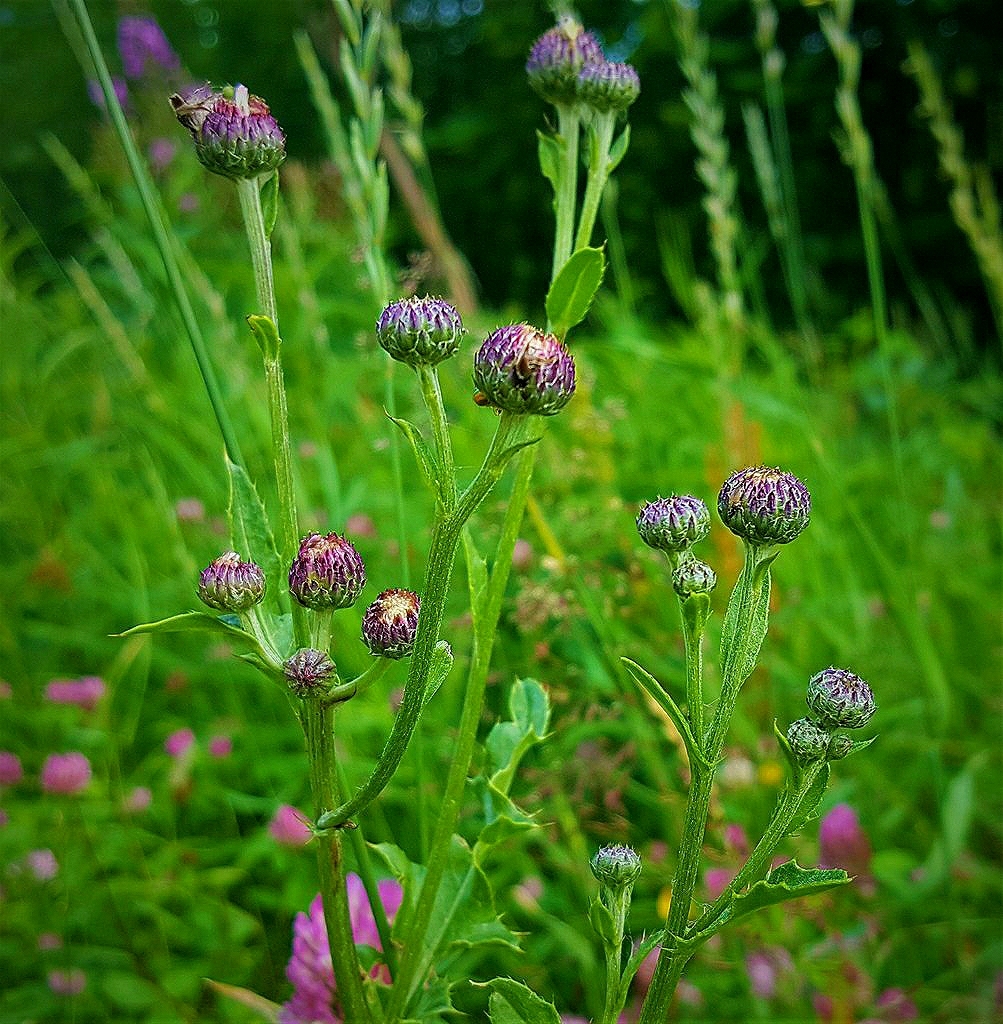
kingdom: Plantae
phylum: Tracheophyta
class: Magnoliopsida
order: Asterales
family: Asteraceae
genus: Cirsium
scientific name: Cirsium arvense
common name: Creeping thistle
